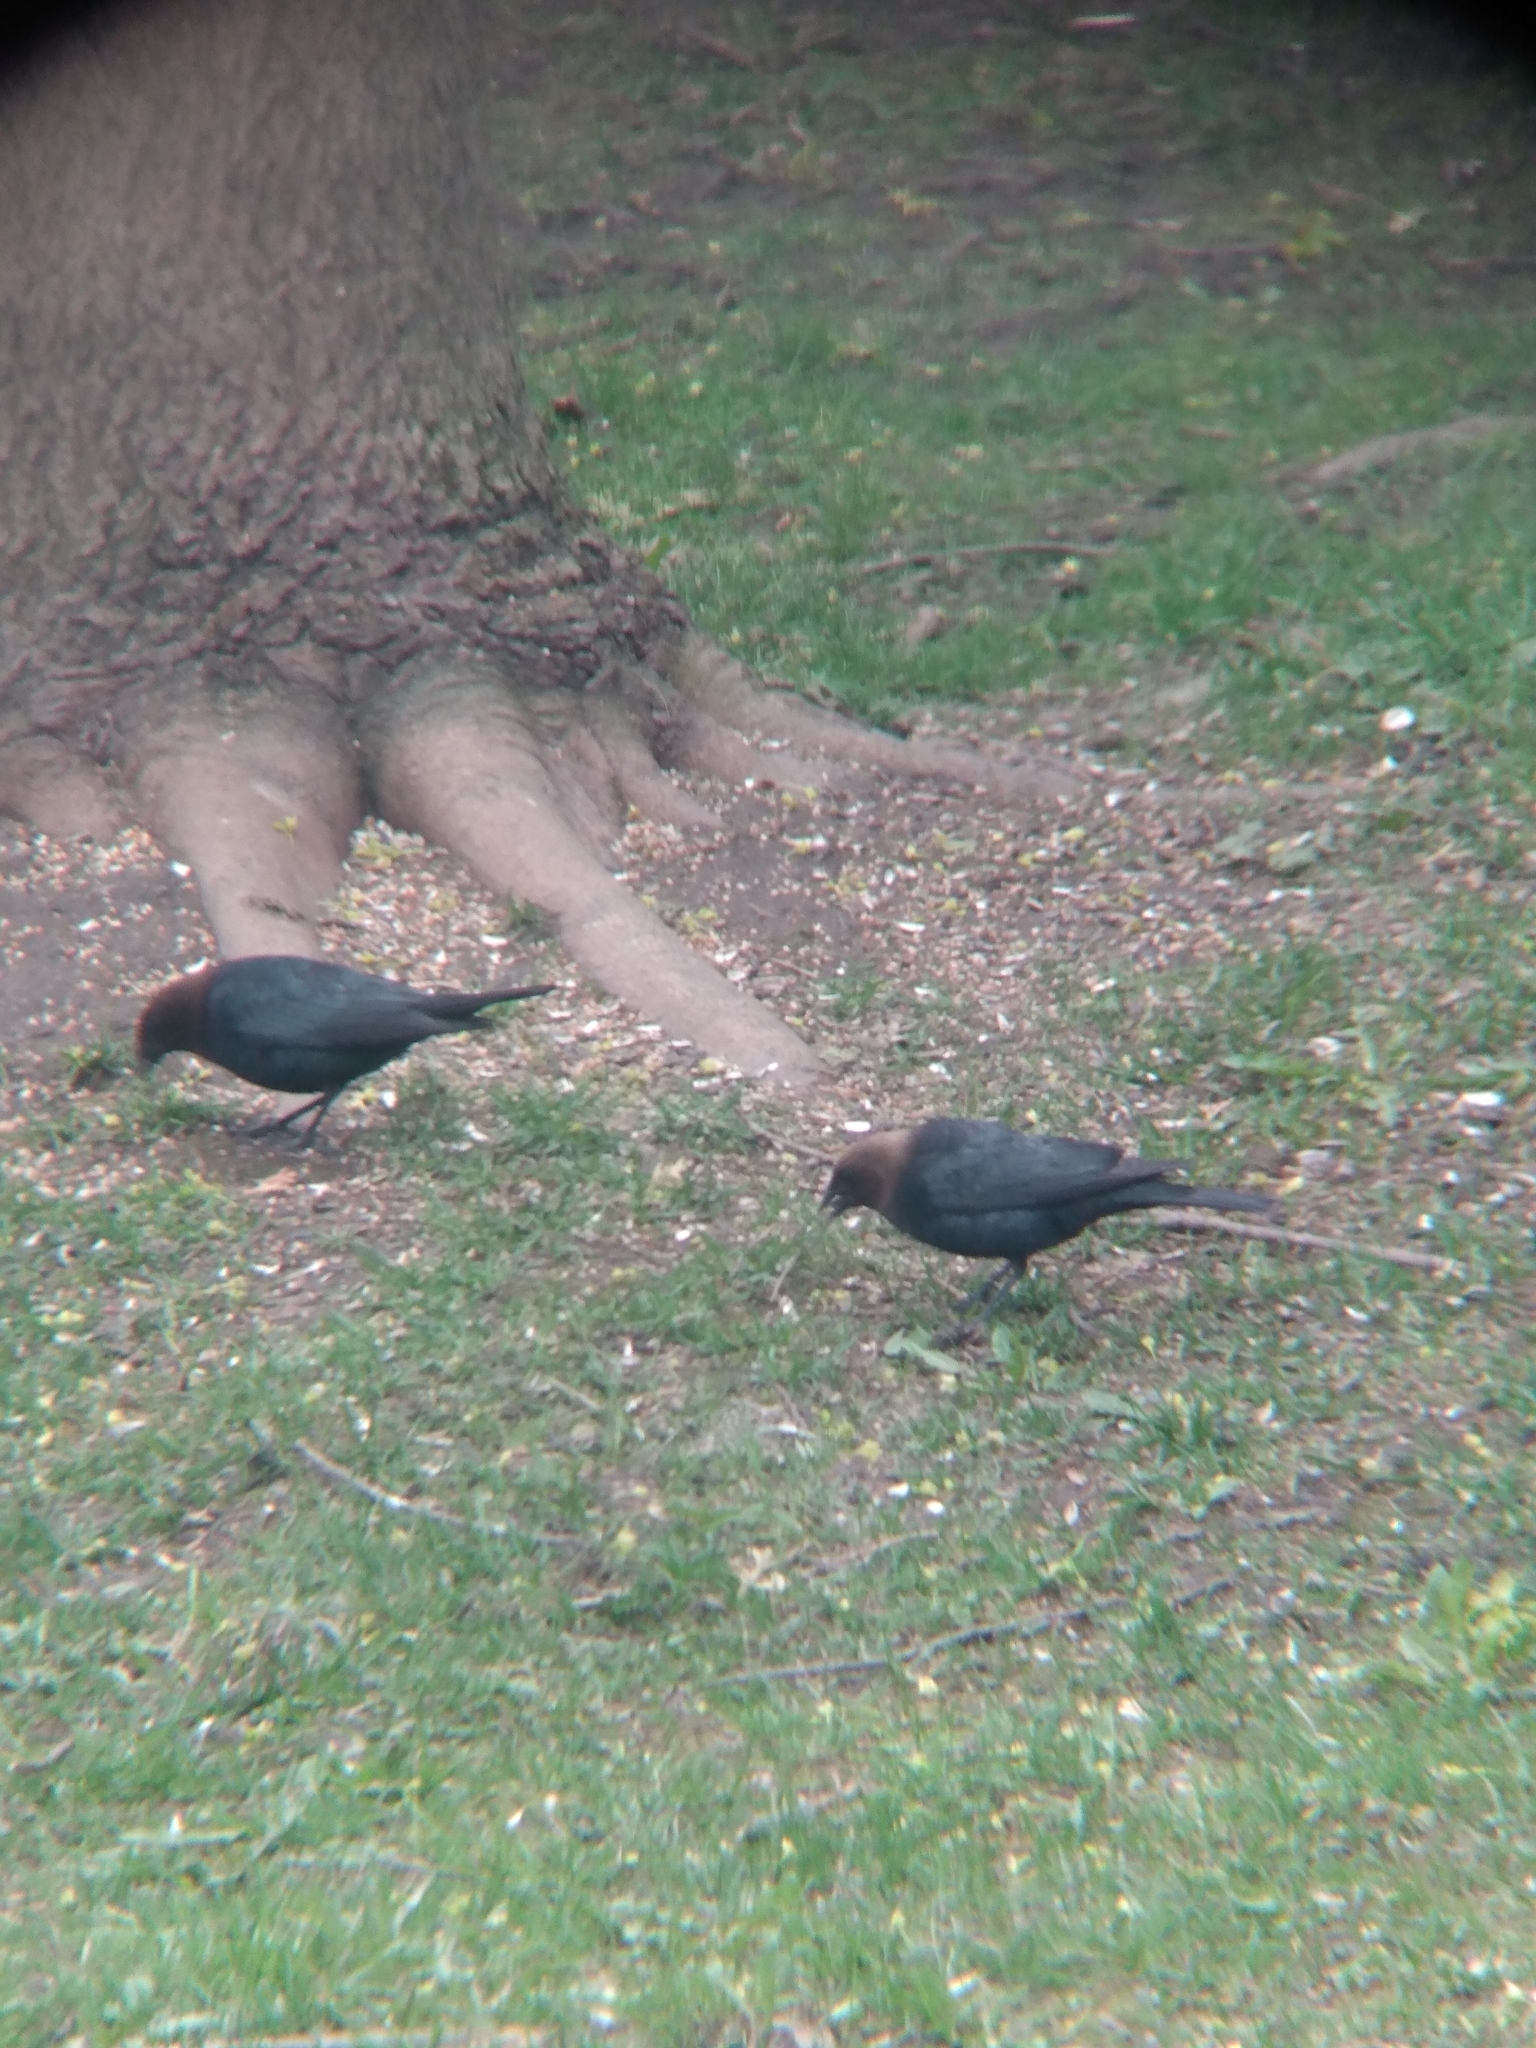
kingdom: Animalia
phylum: Chordata
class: Aves
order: Passeriformes
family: Icteridae
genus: Molothrus
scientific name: Molothrus ater
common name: Brown-headed cowbird
